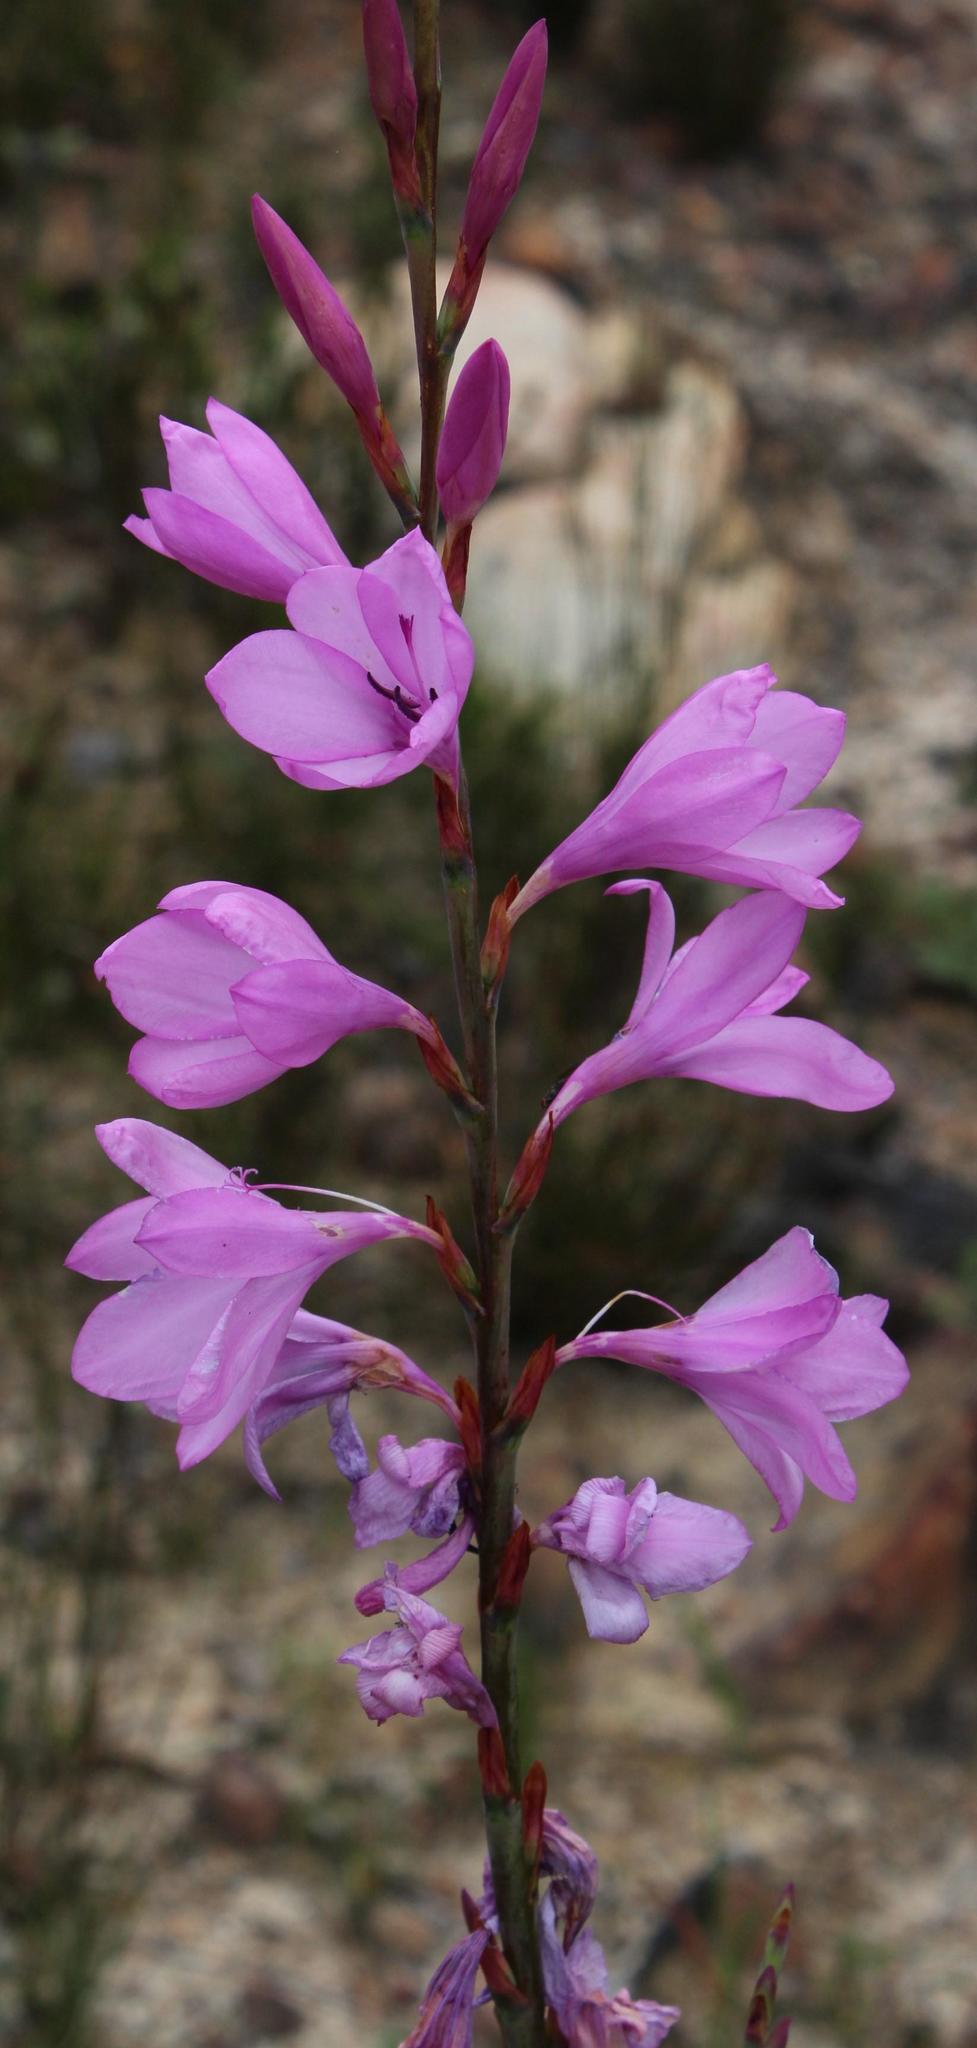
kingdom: Plantae
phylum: Tracheophyta
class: Liliopsida
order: Asparagales
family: Iridaceae
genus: Watsonia
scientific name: Watsonia borbonica
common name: Bugle-lily
